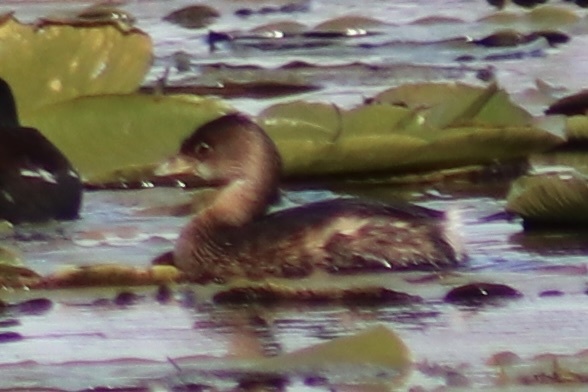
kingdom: Animalia
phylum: Chordata
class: Aves
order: Podicipediformes
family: Podicipedidae
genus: Podilymbus
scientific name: Podilymbus podiceps
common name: Pied-billed grebe
